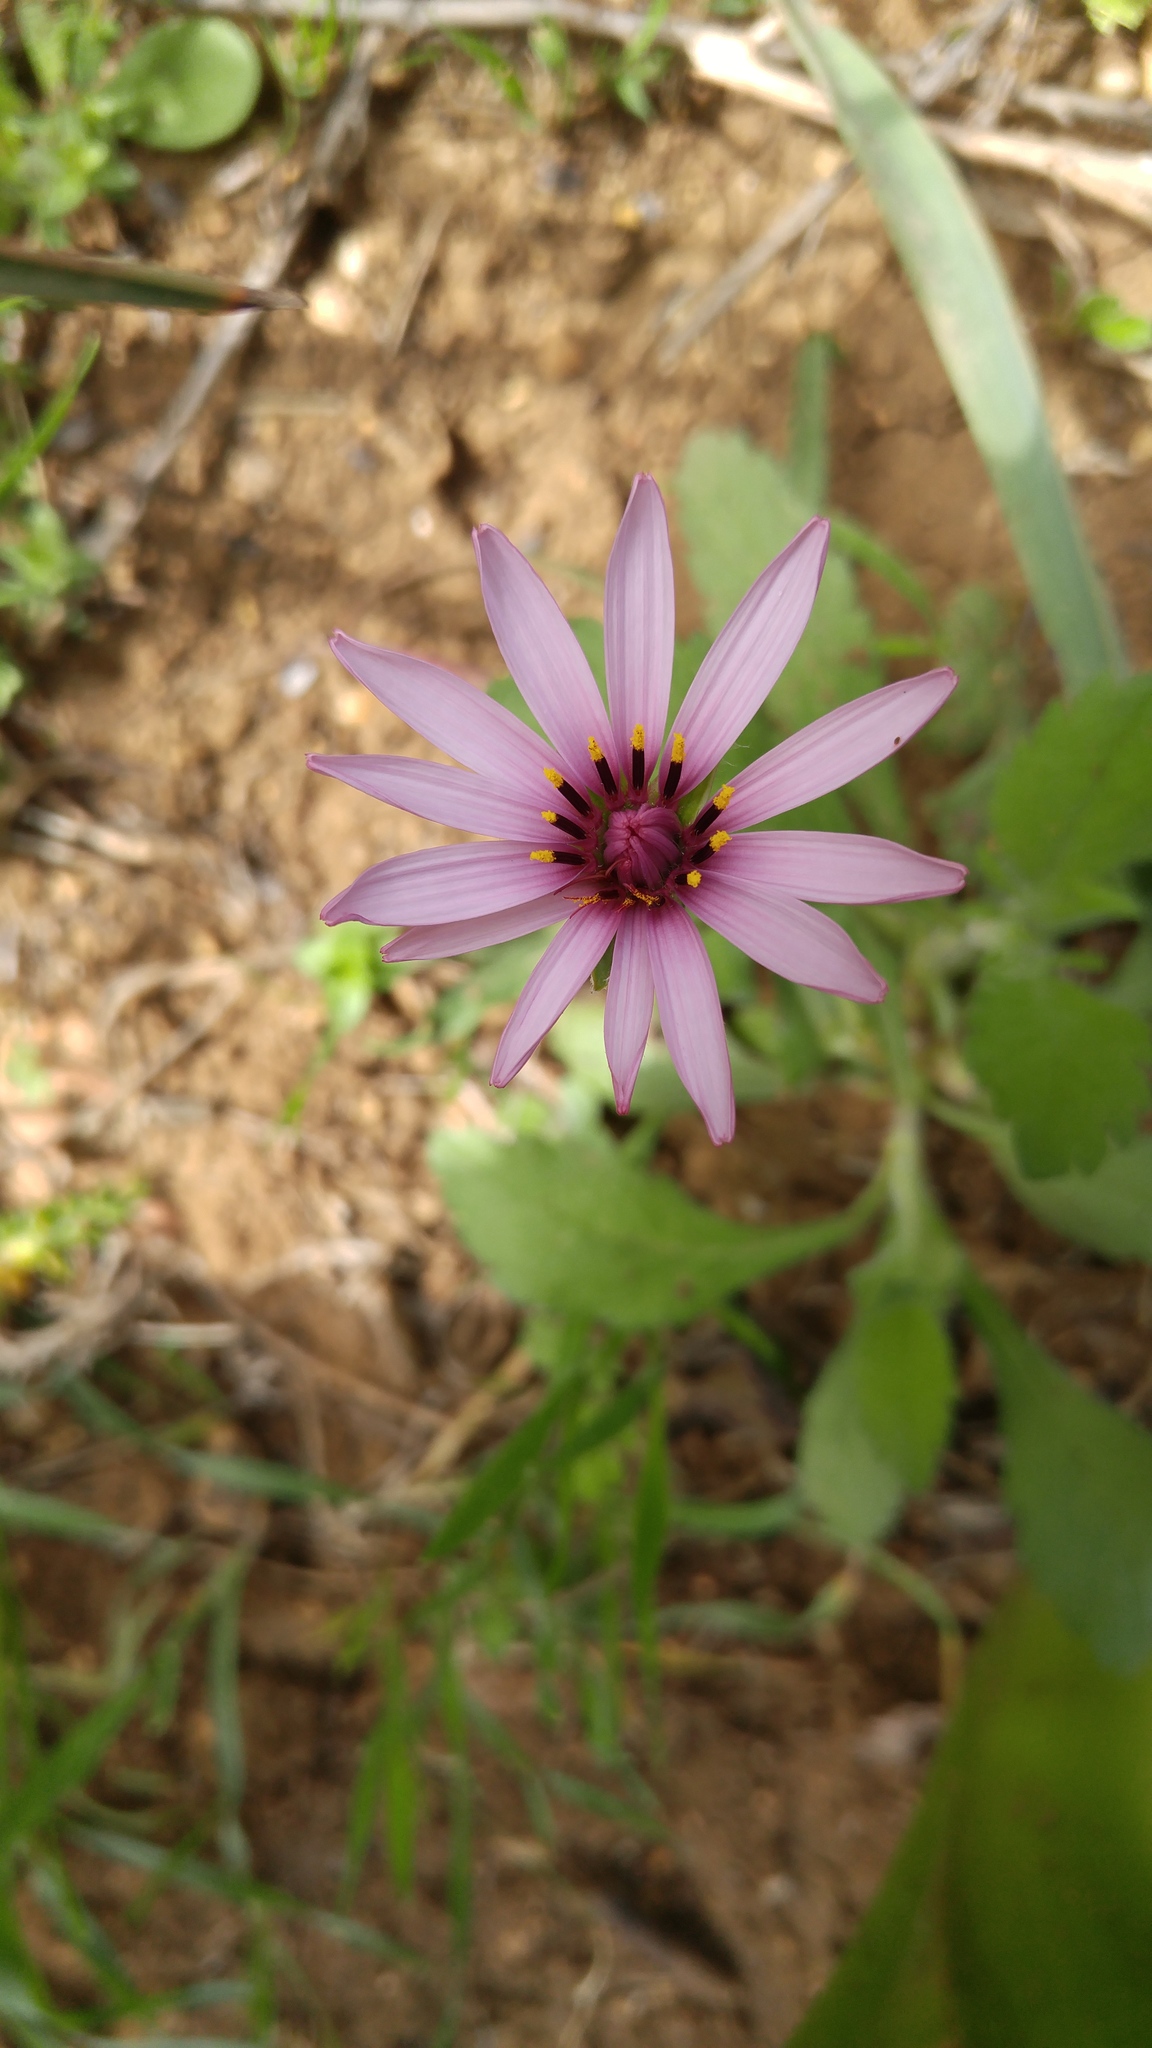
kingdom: Plantae
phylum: Tracheophyta
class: Magnoliopsida
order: Asterales
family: Asteraceae
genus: Pseudopodospermum
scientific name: Pseudopodospermum undulatum
